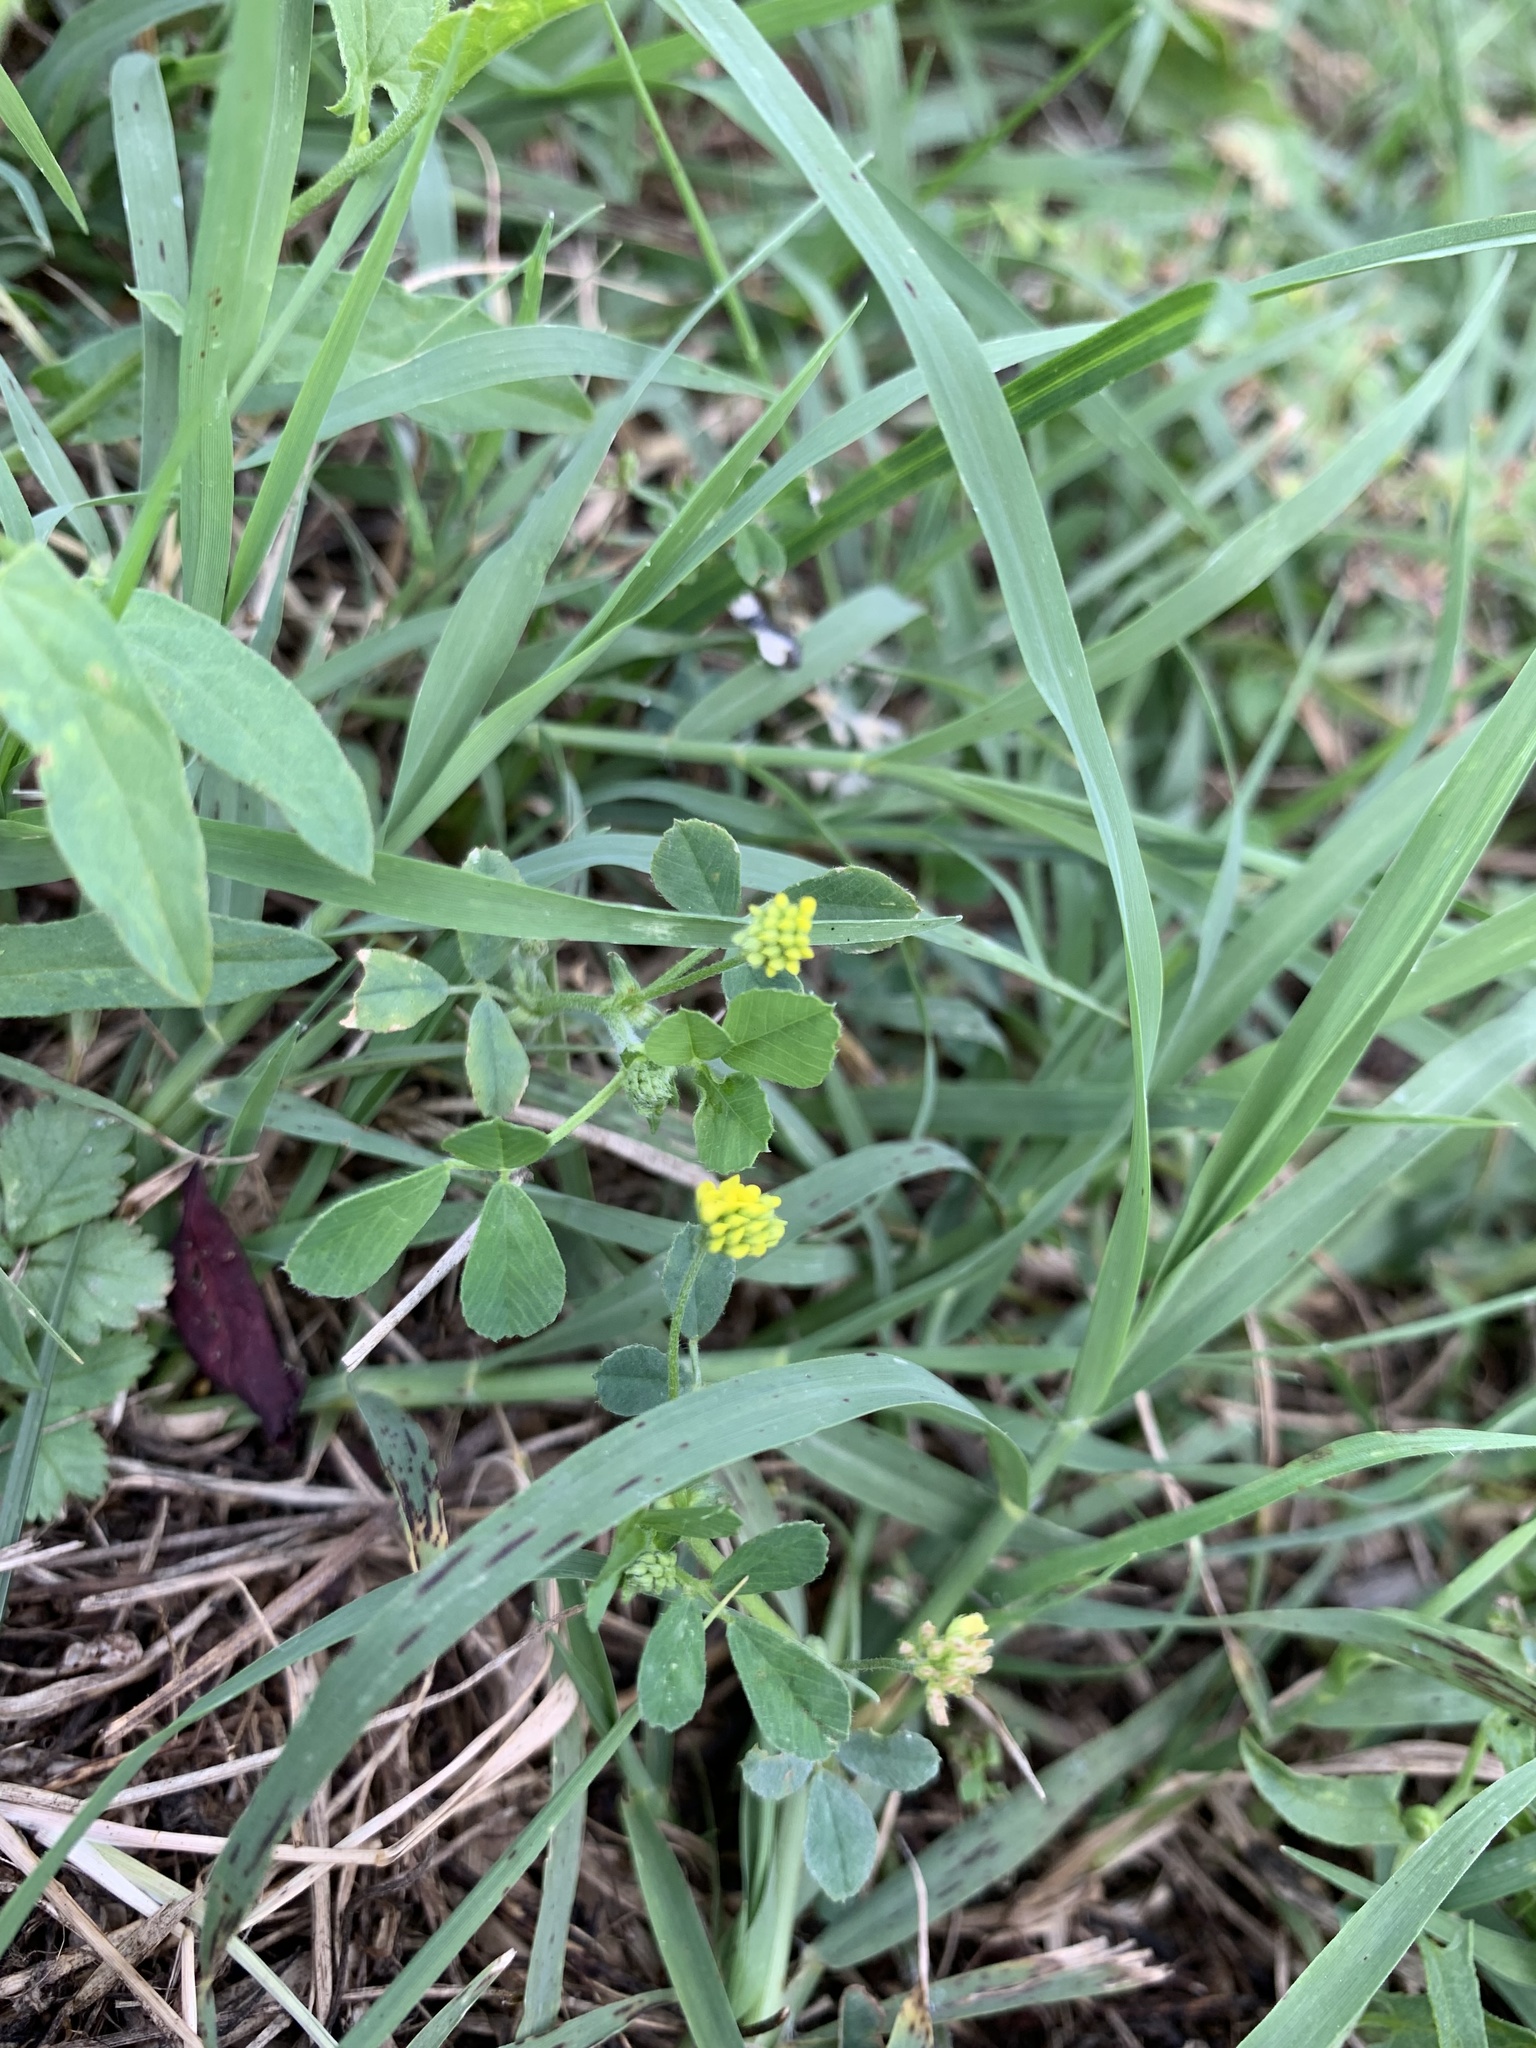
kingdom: Plantae
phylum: Tracheophyta
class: Magnoliopsida
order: Fabales
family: Fabaceae
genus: Medicago
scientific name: Medicago lupulina
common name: Black medick
